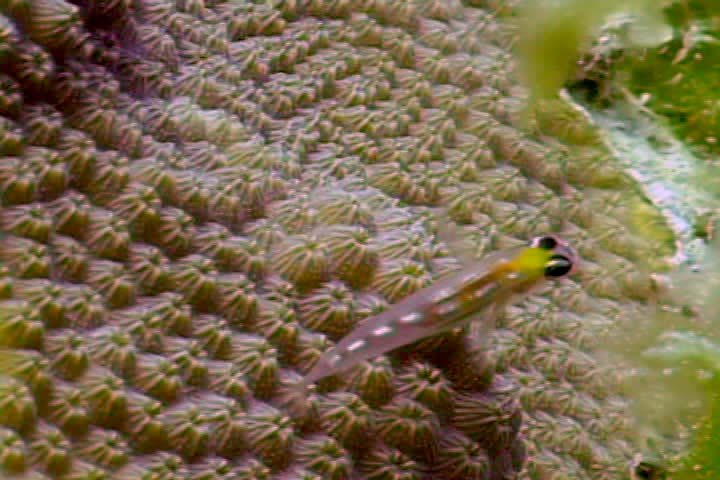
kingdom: Animalia
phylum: Chordata
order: Perciformes
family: Gobiidae
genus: Coryphopterus
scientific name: Coryphopterus personatus
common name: Masked goby
